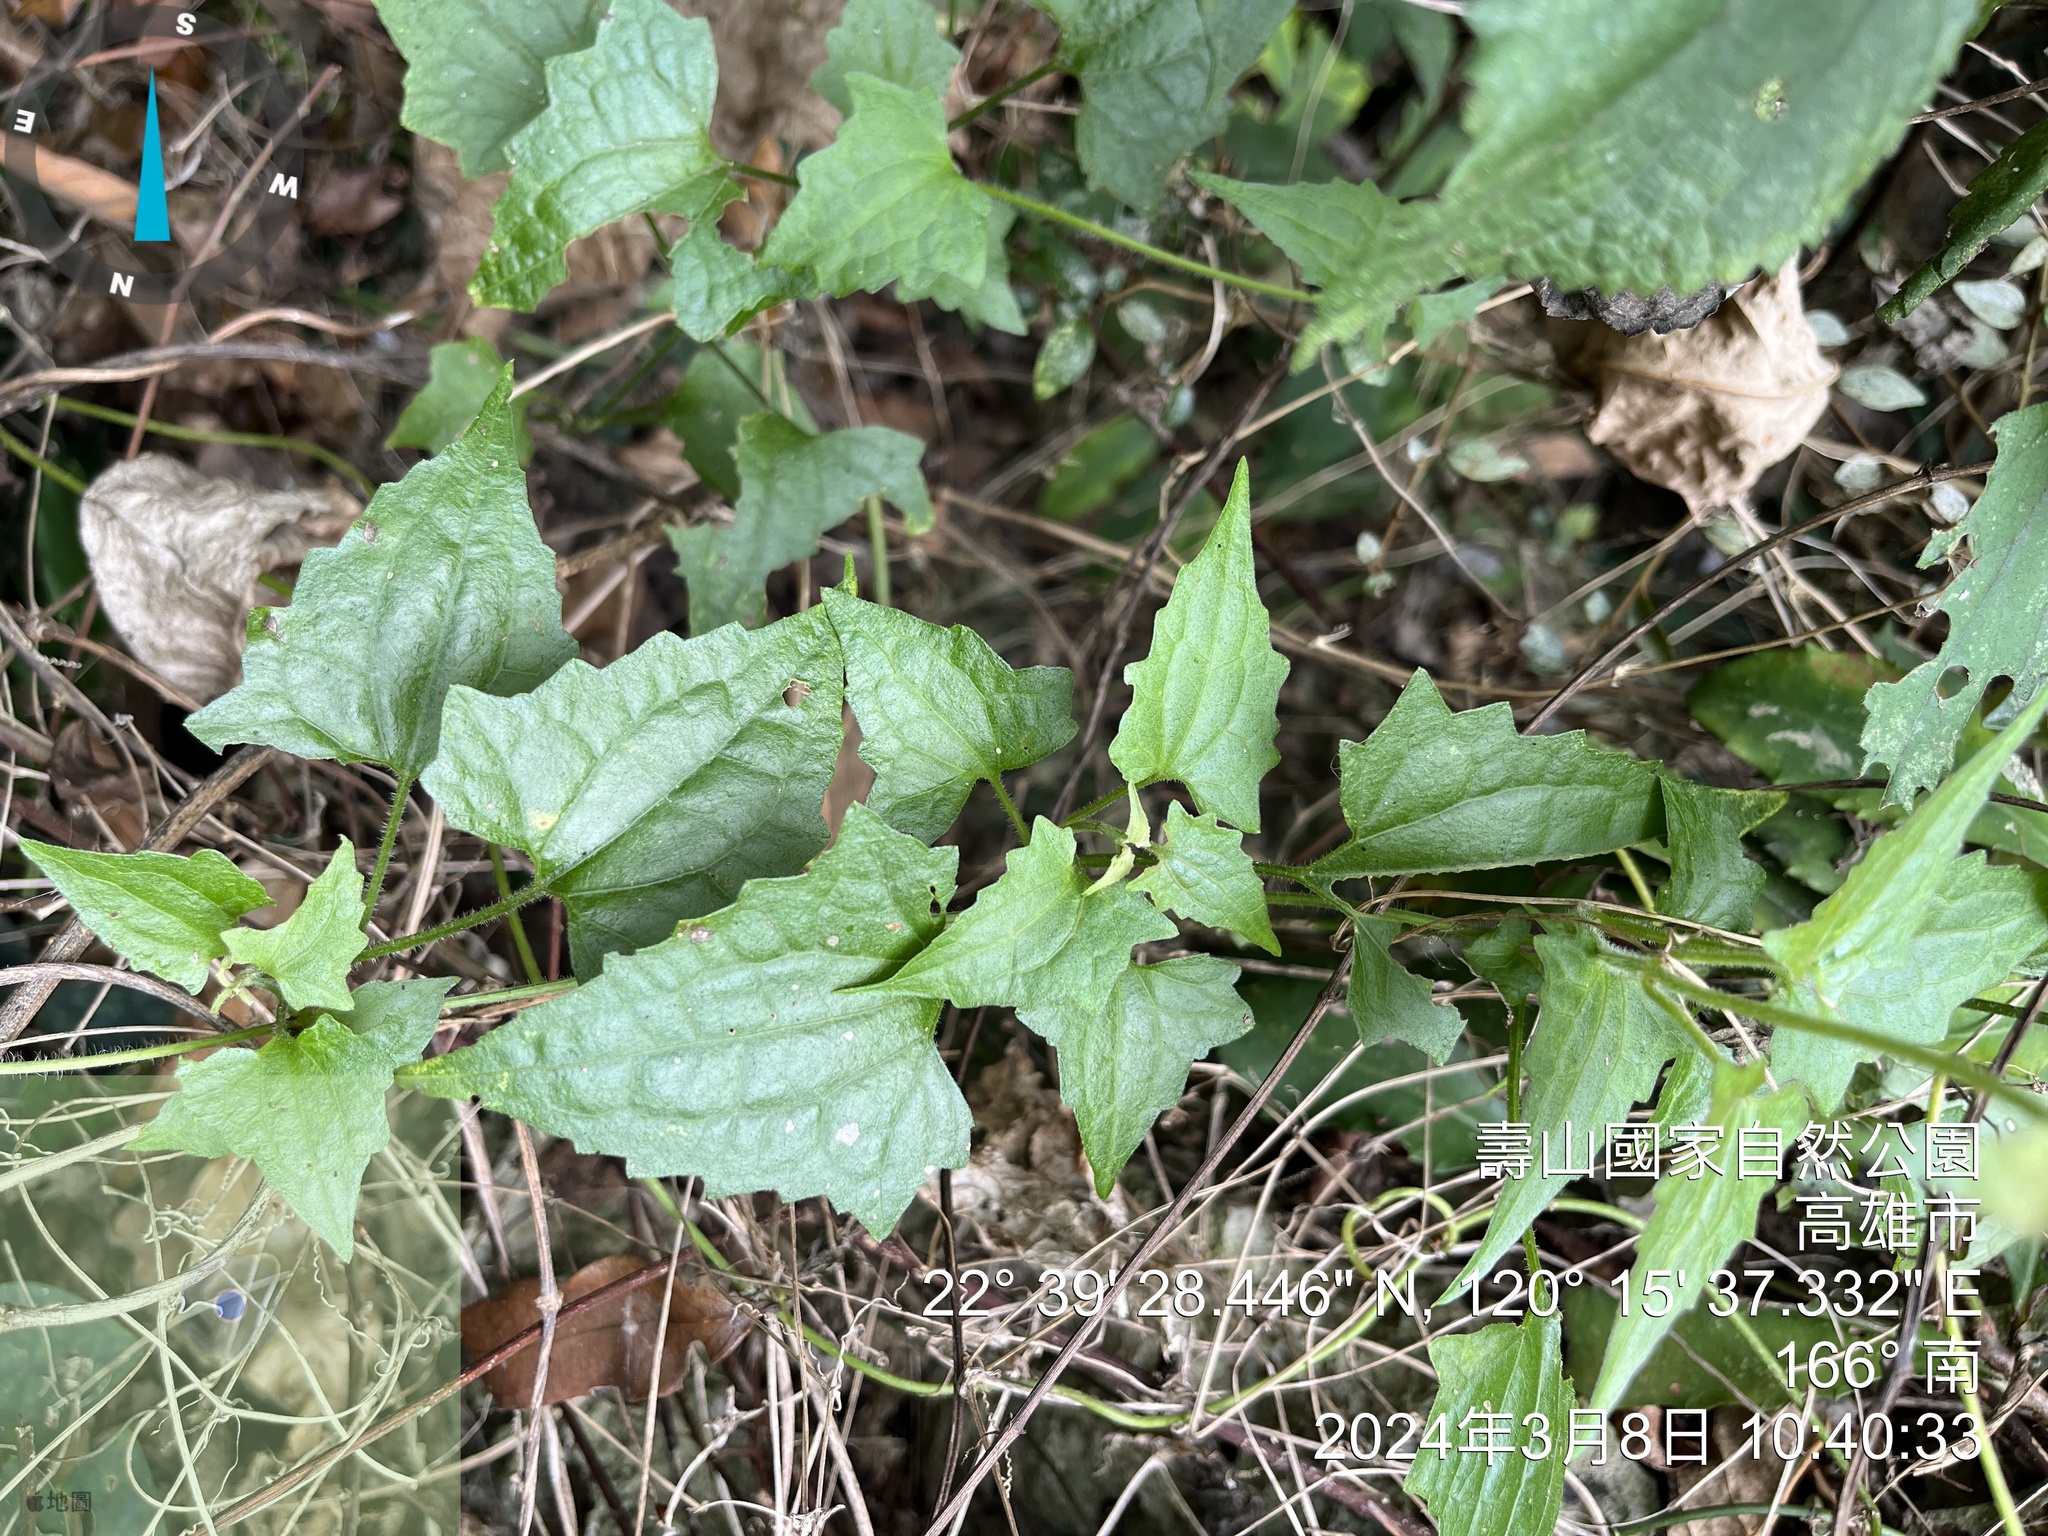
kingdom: Plantae
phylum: Tracheophyta
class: Magnoliopsida
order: Asterales
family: Asteraceae
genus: Mikania
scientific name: Mikania micrantha
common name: Mile-a-minute
